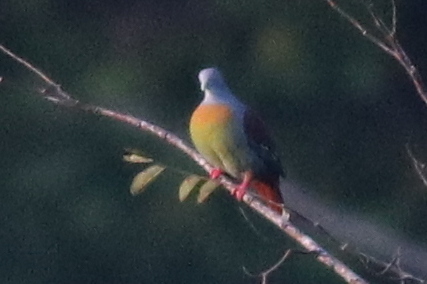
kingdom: Animalia
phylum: Chordata
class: Aves
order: Columbiformes
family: Columbidae
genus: Treron
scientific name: Treron olax
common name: Little green pigeon
